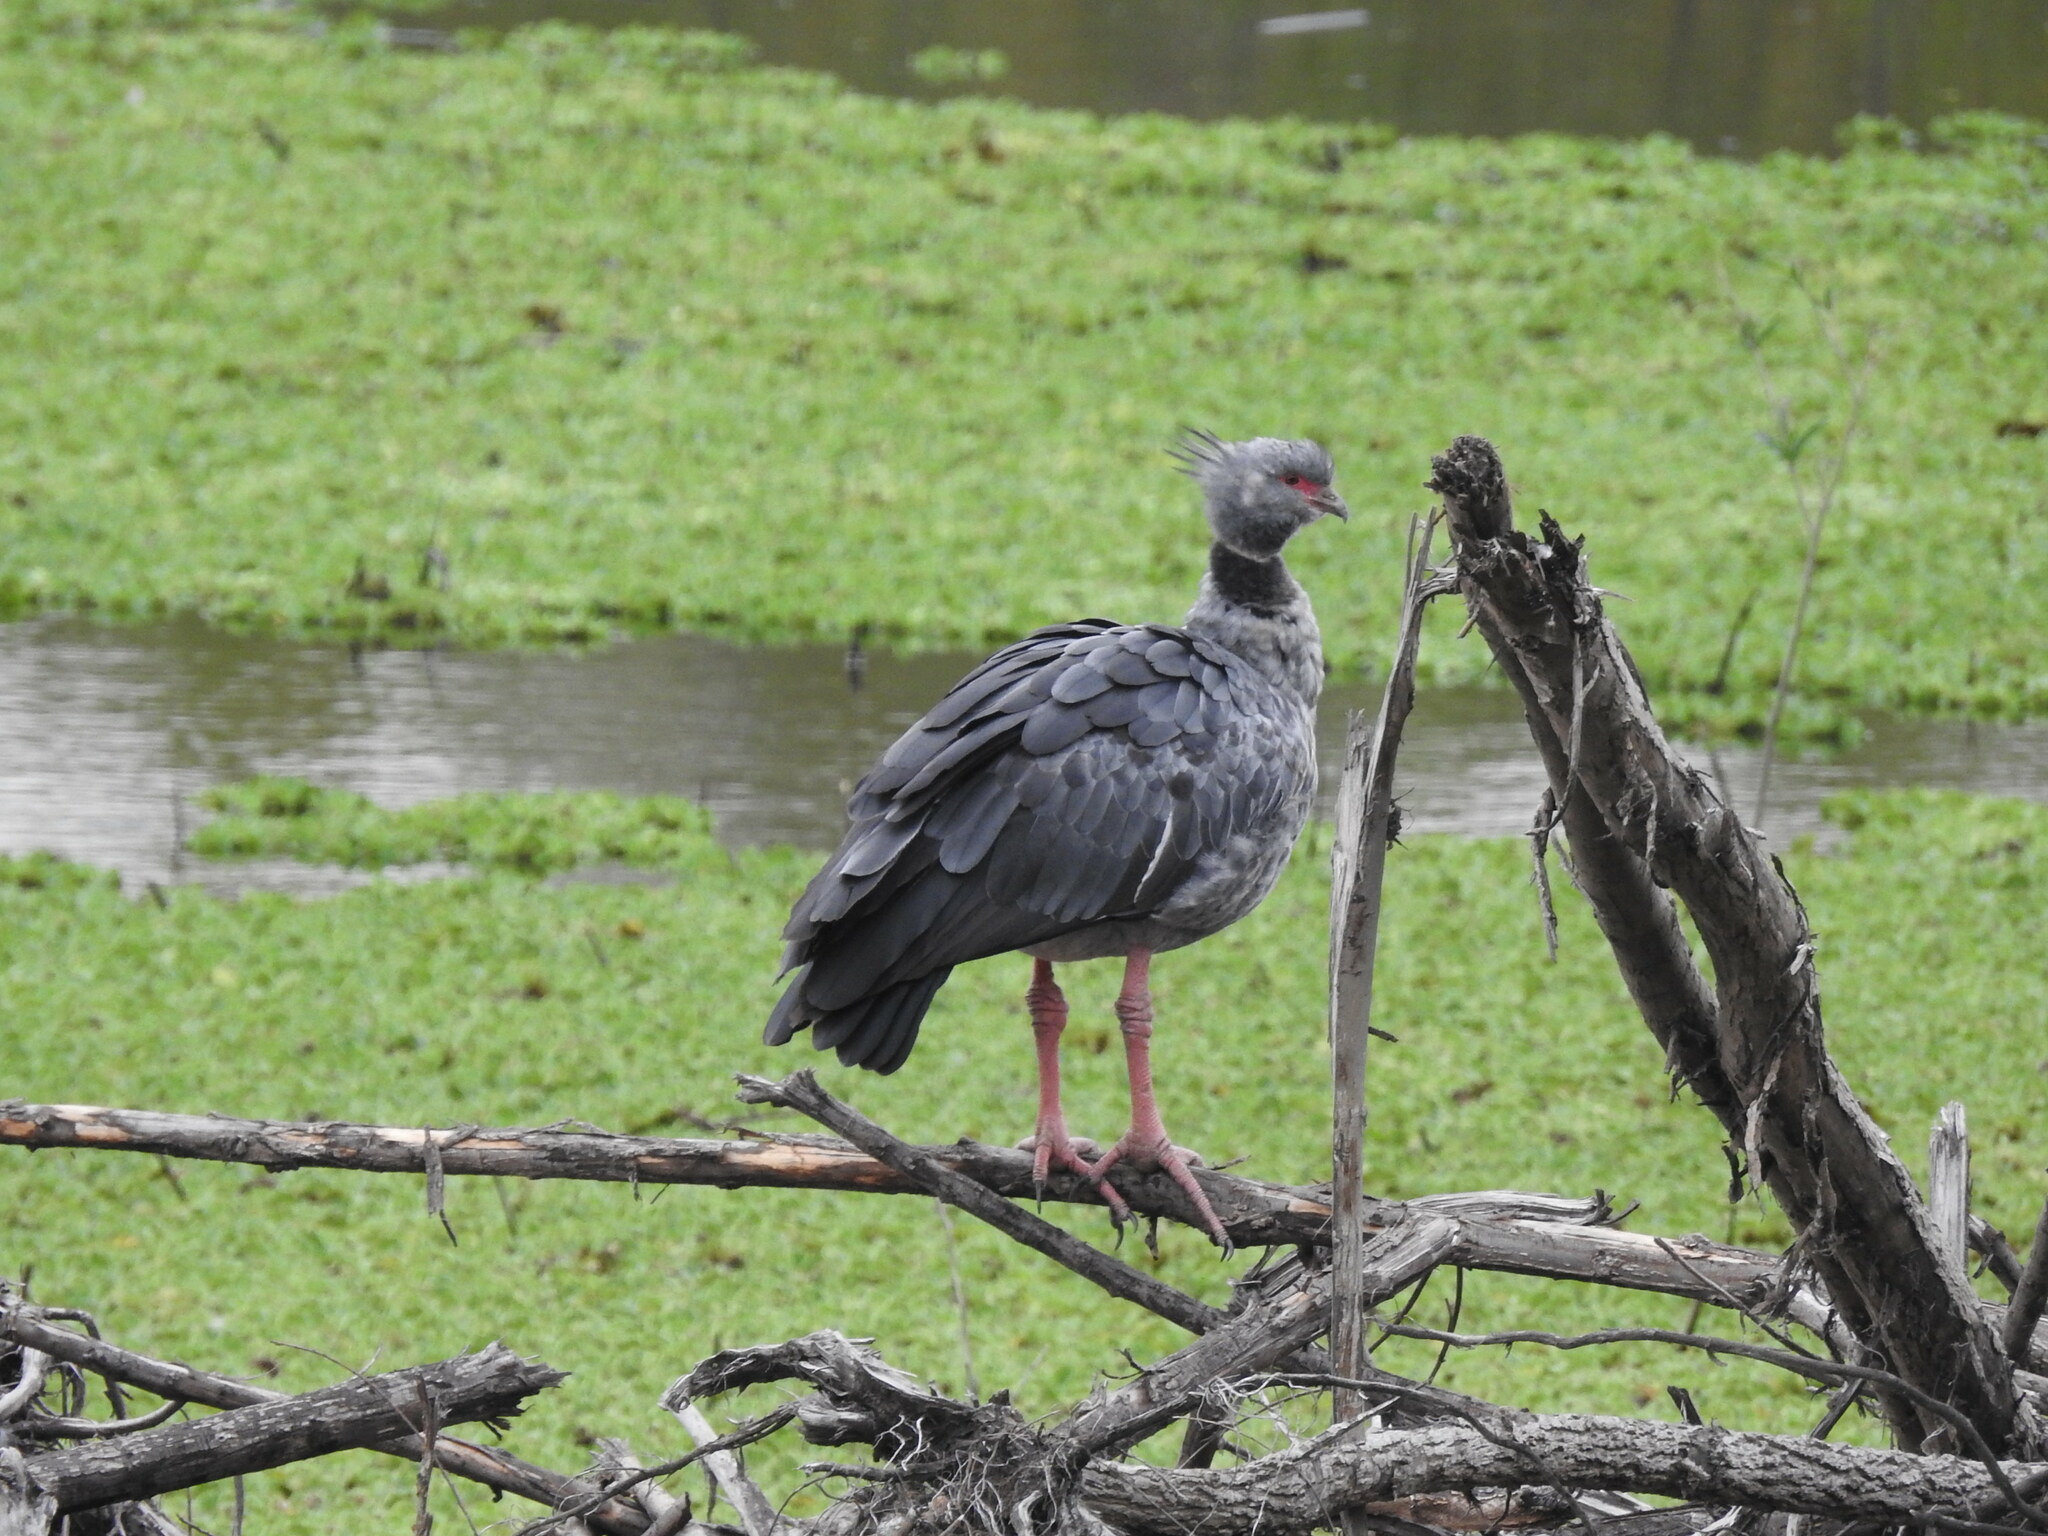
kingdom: Animalia
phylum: Chordata
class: Aves
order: Anseriformes
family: Anhimidae
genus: Chauna
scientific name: Chauna torquata
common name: Southern screamer
